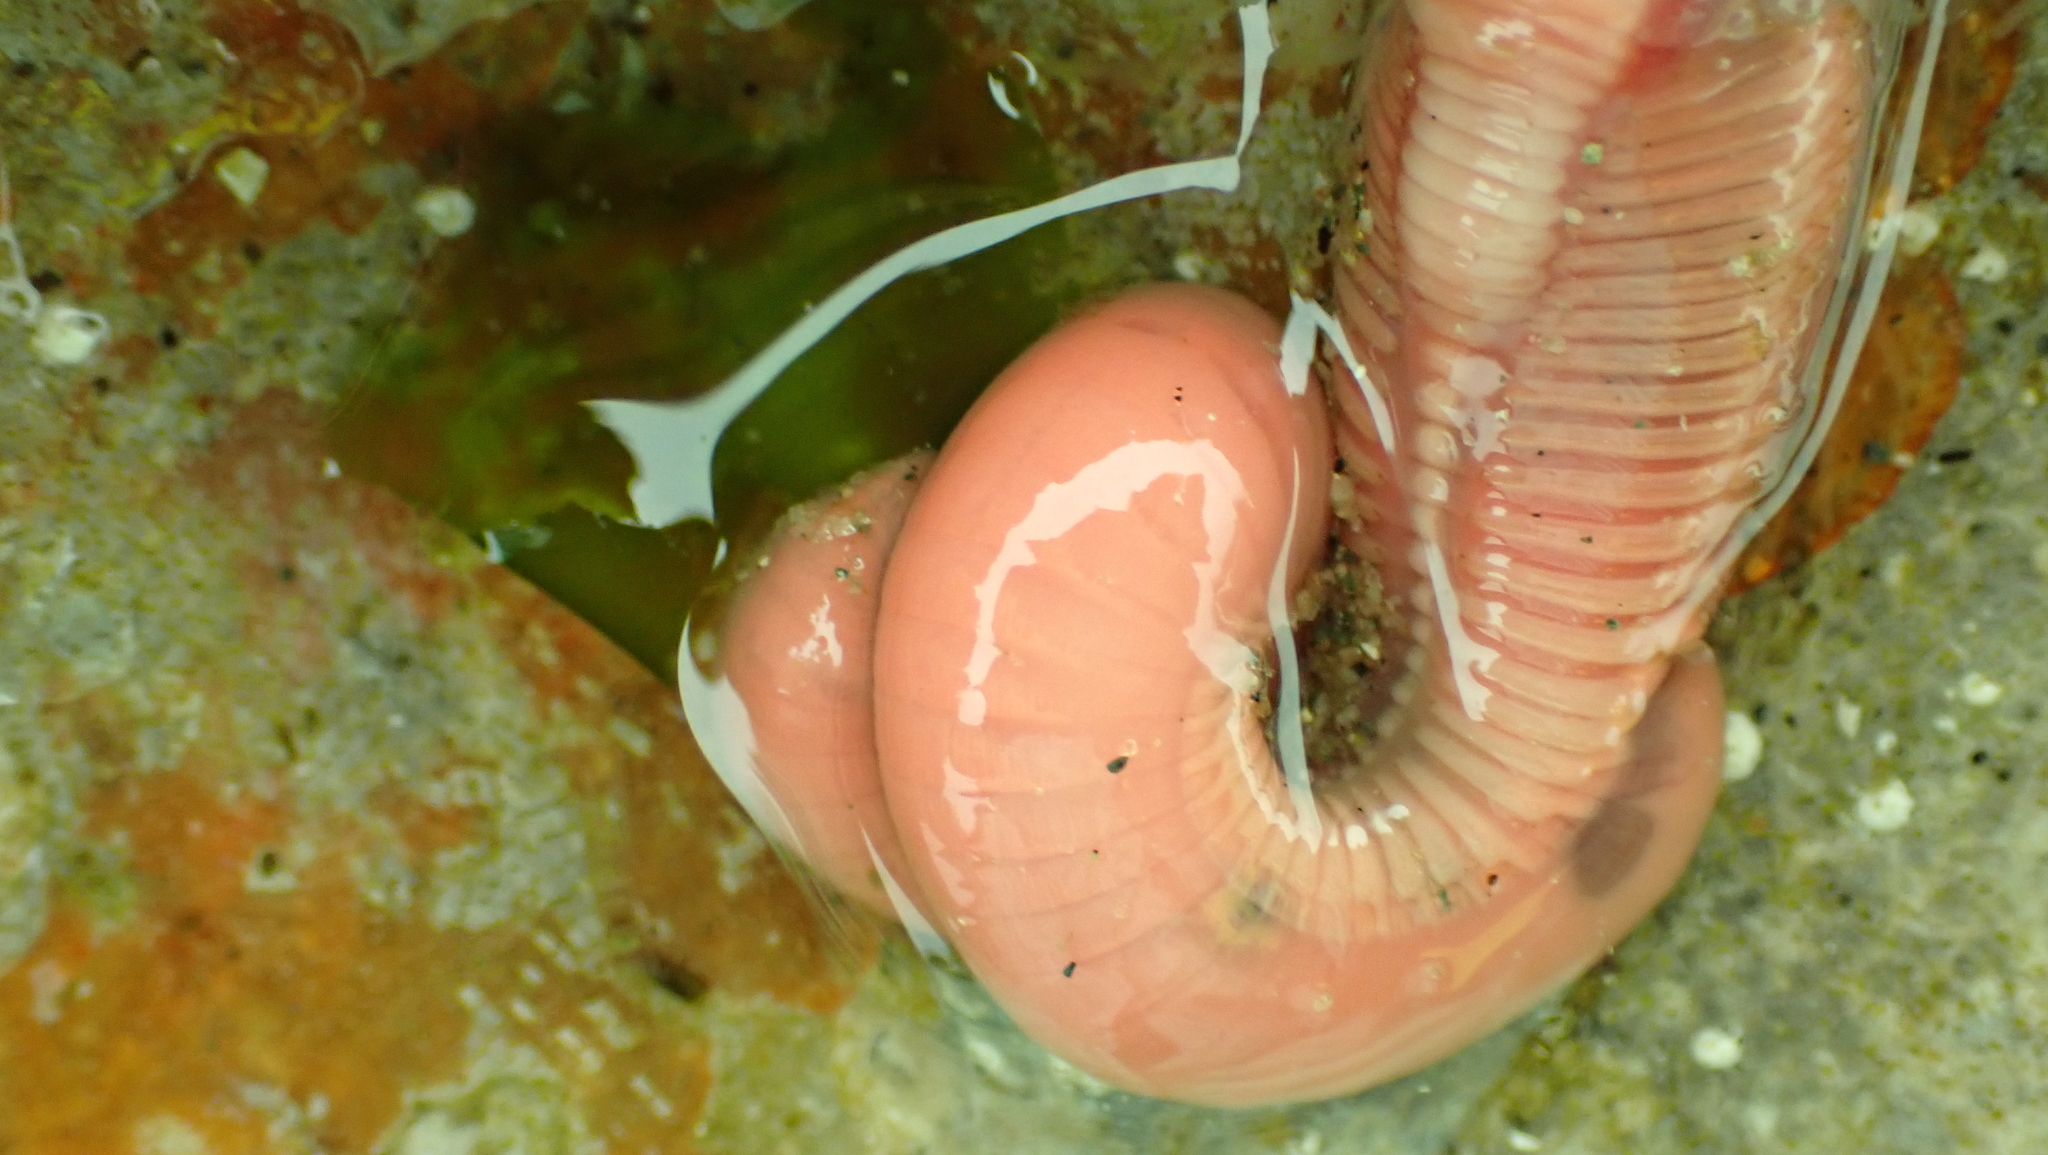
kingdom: Animalia
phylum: Annelida
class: Polychaeta
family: Terebellidae
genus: Neoamphitrite
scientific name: Neoamphitrite robusta
